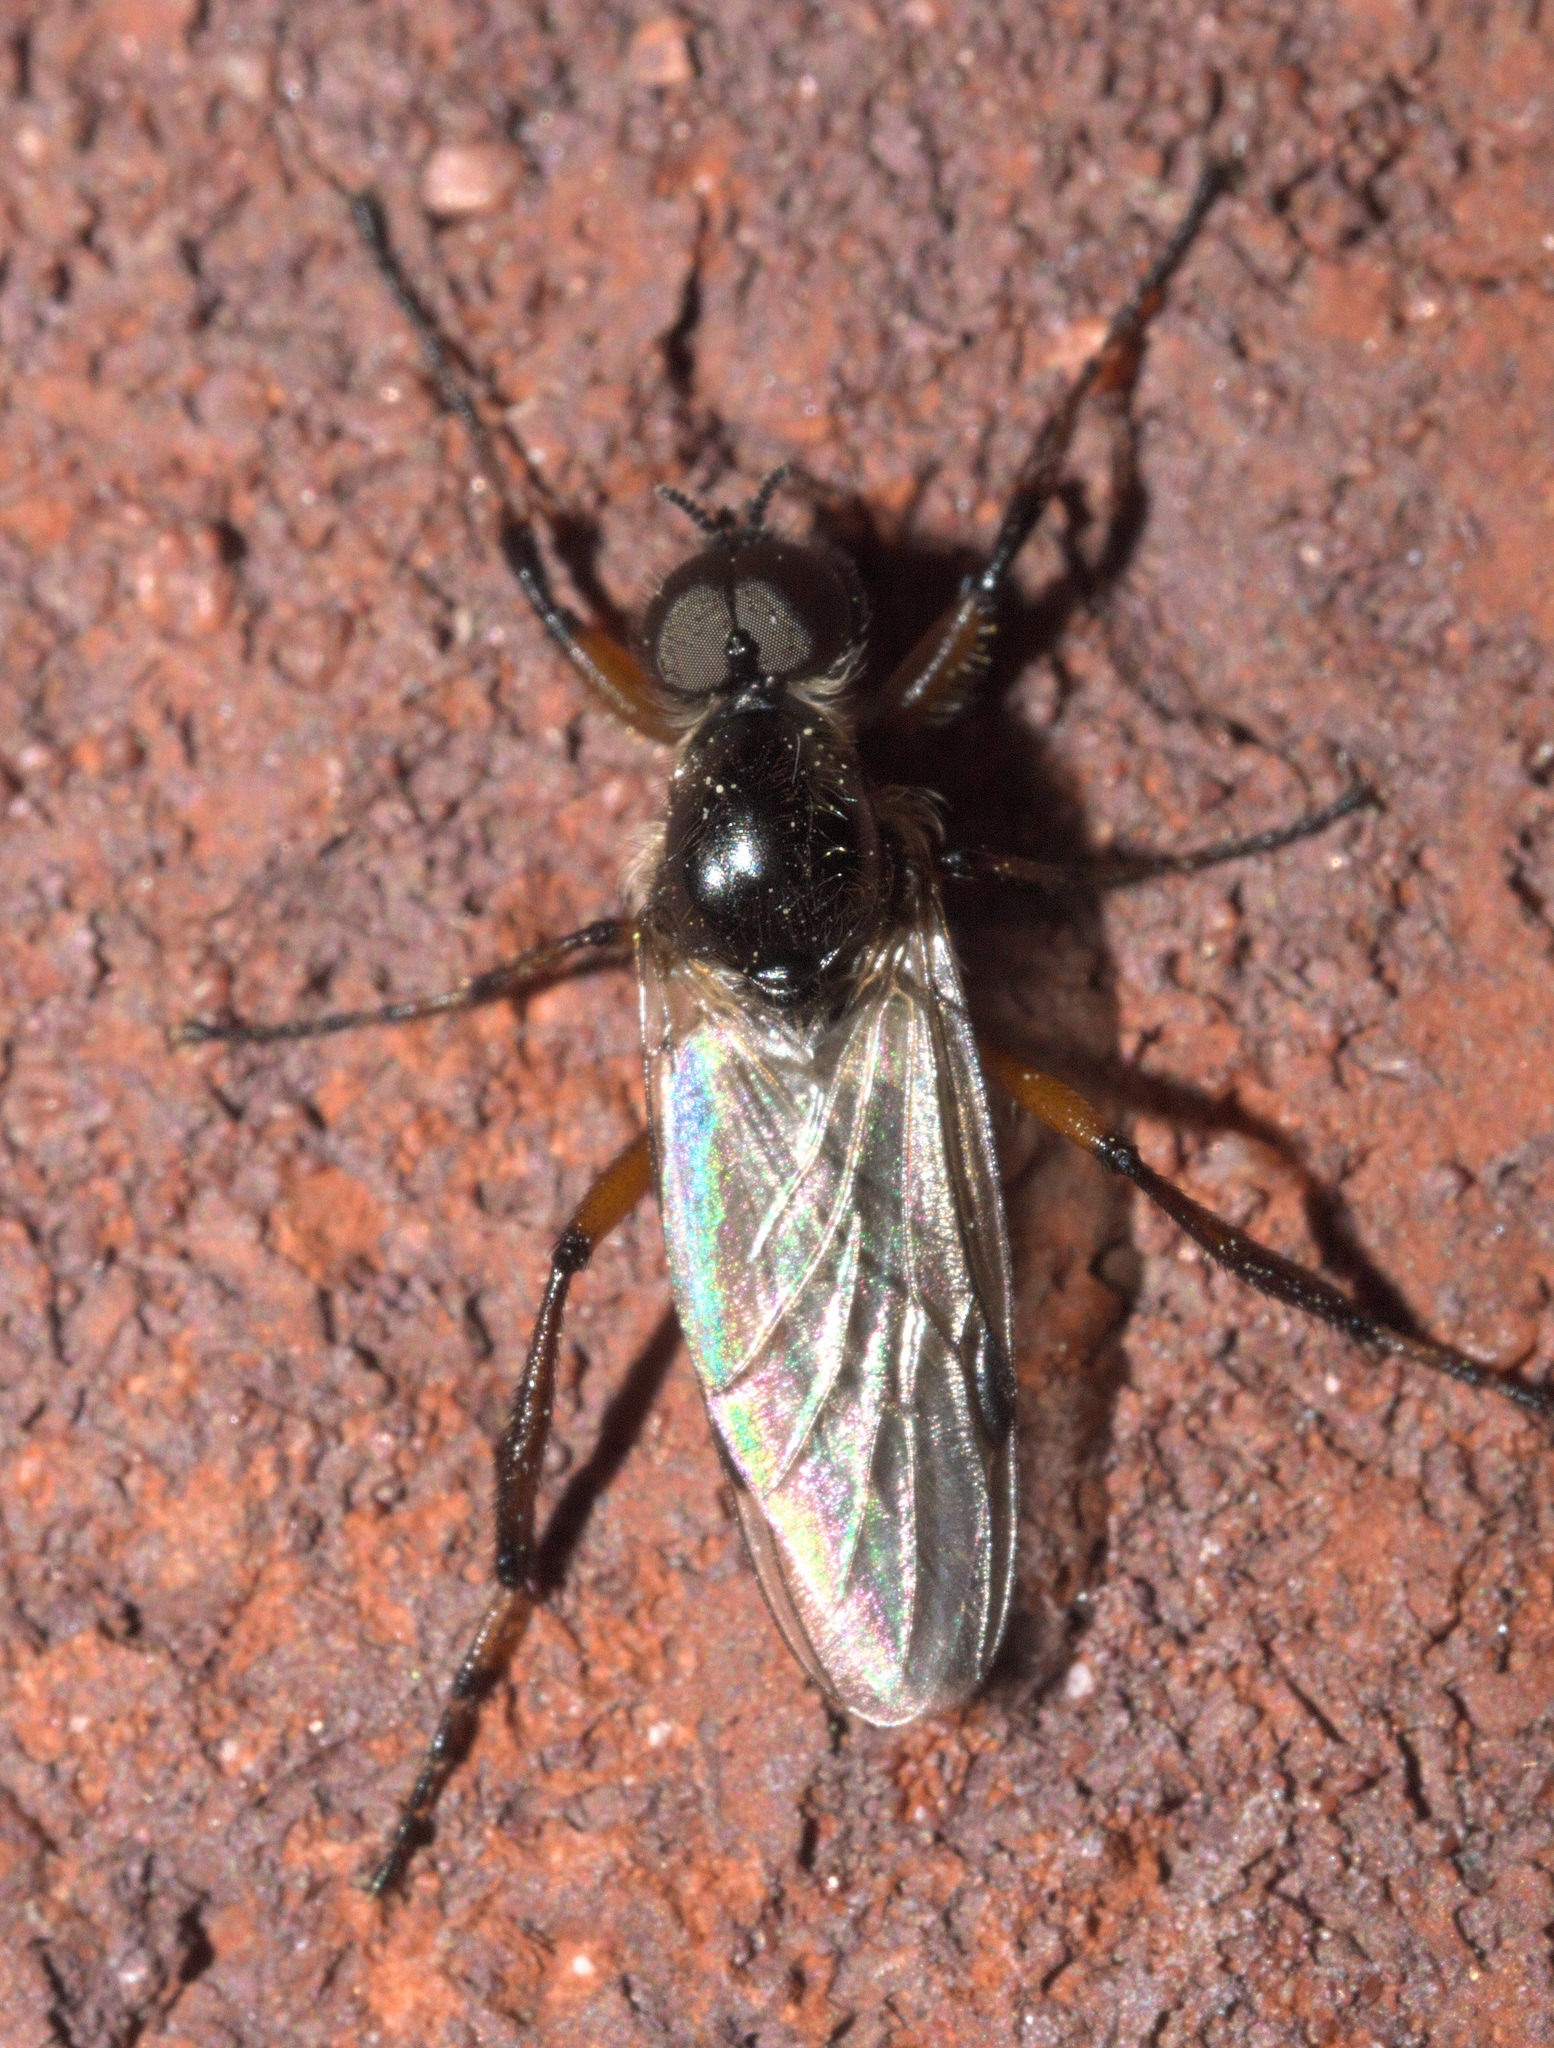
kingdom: Animalia
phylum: Arthropoda
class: Insecta
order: Diptera
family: Bibionidae
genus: Bibio
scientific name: Bibio articulatus
